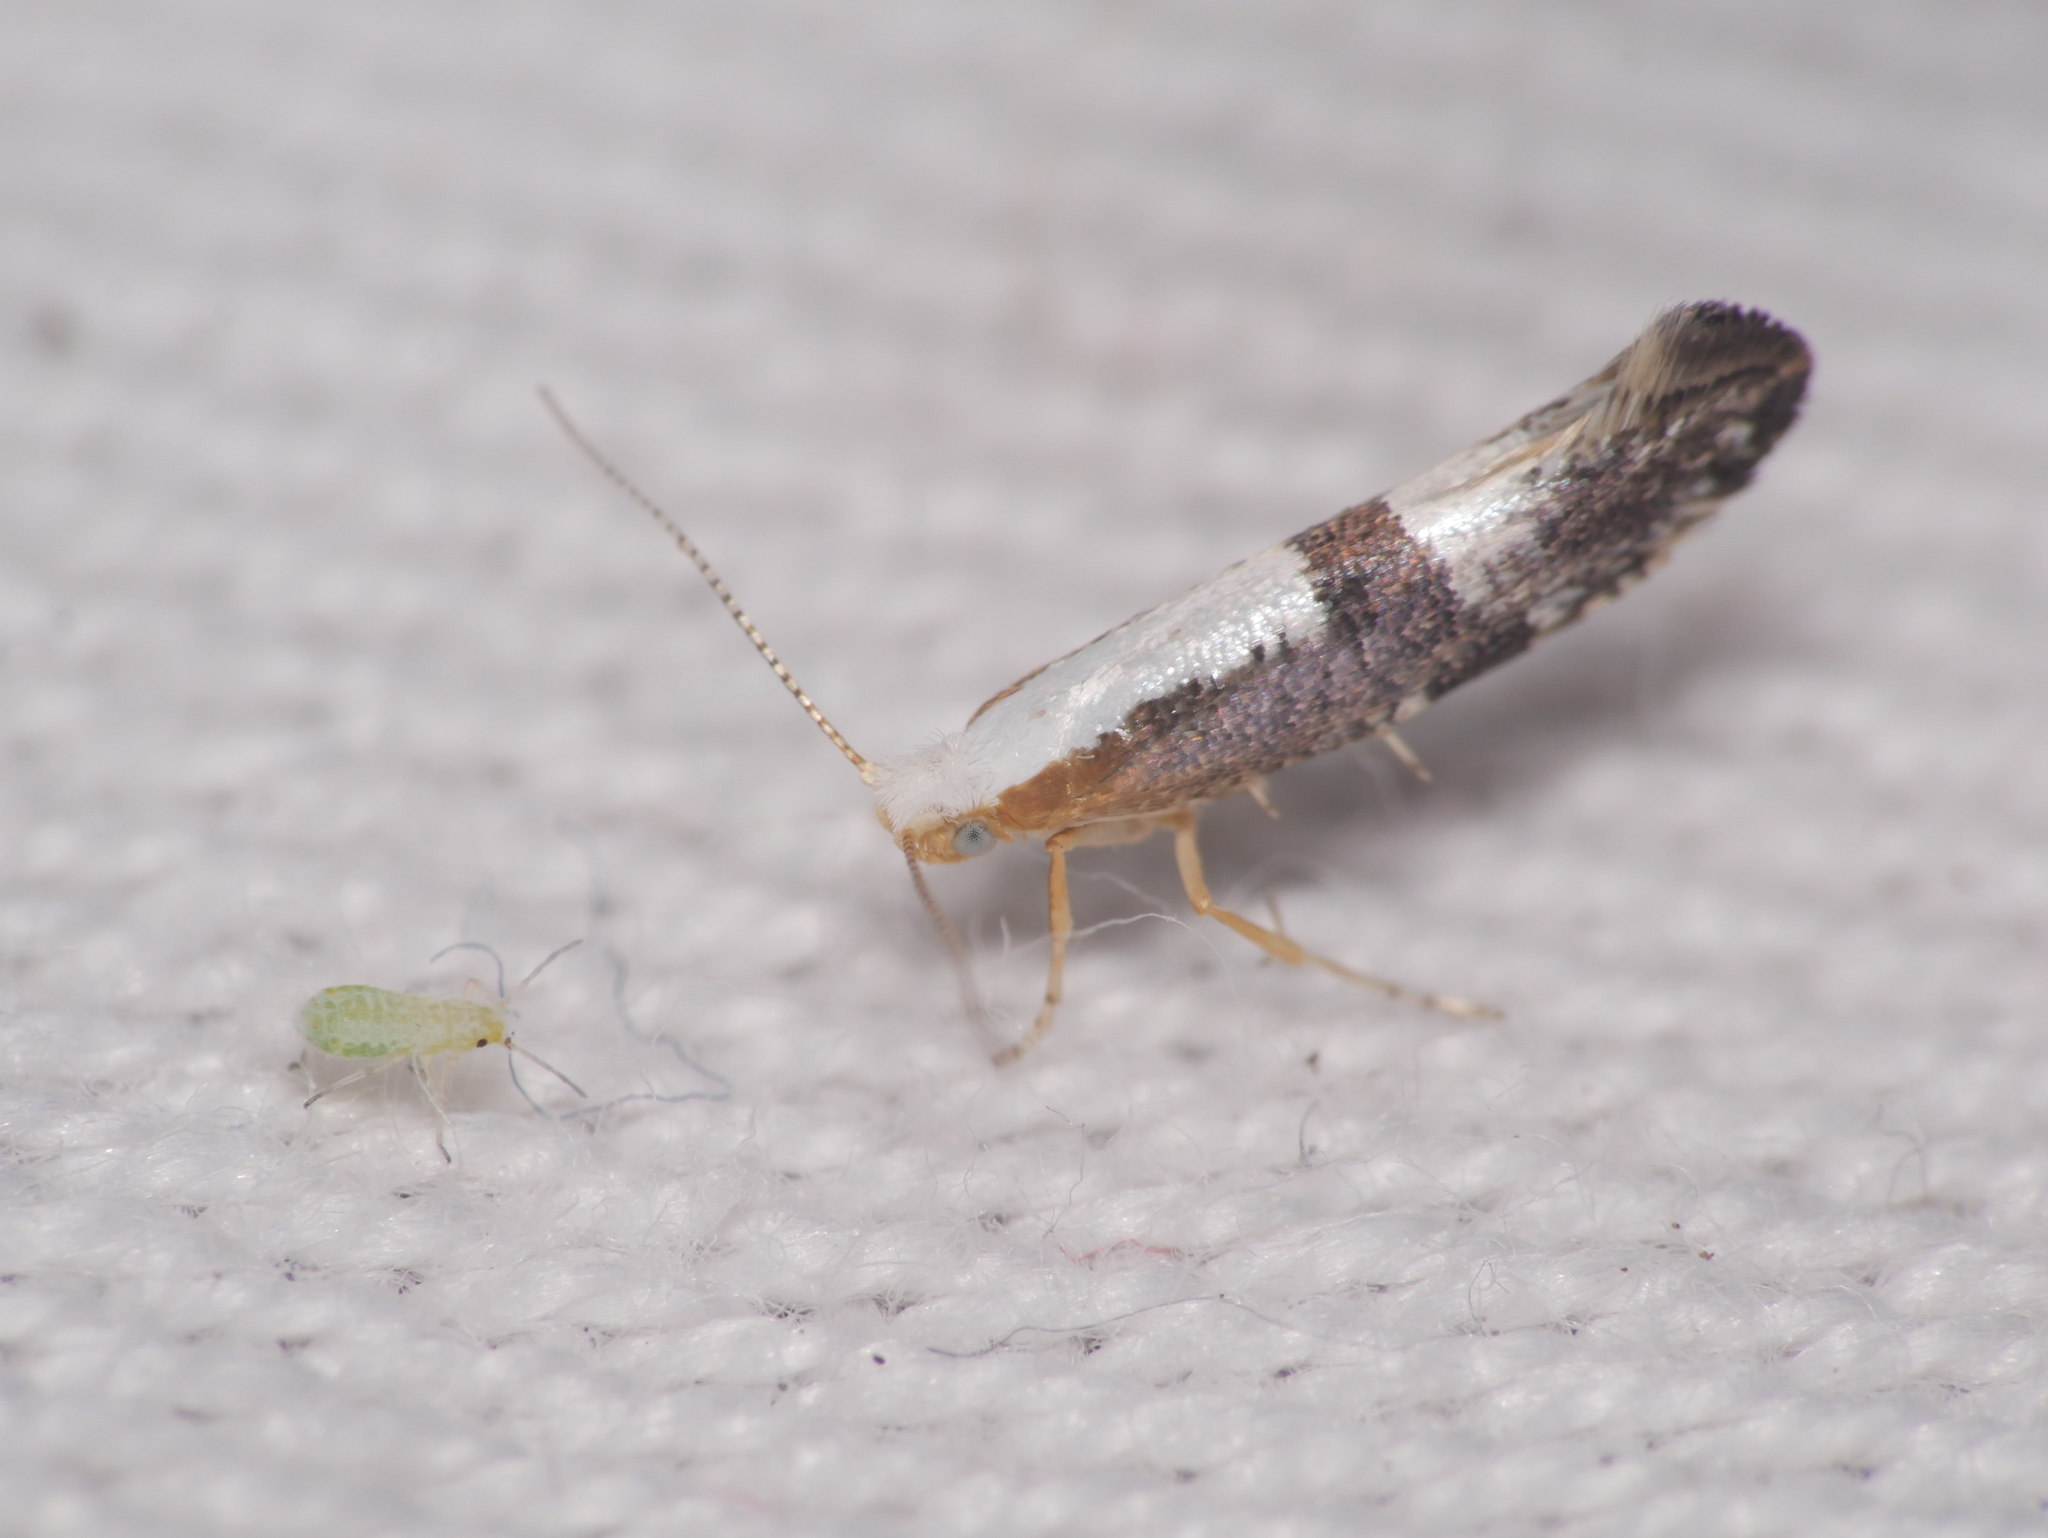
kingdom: Animalia
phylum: Arthropoda
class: Insecta
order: Lepidoptera
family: Argyresthiidae
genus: Argyresthia
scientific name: Argyresthia spinosella
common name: Blackthorn argent
